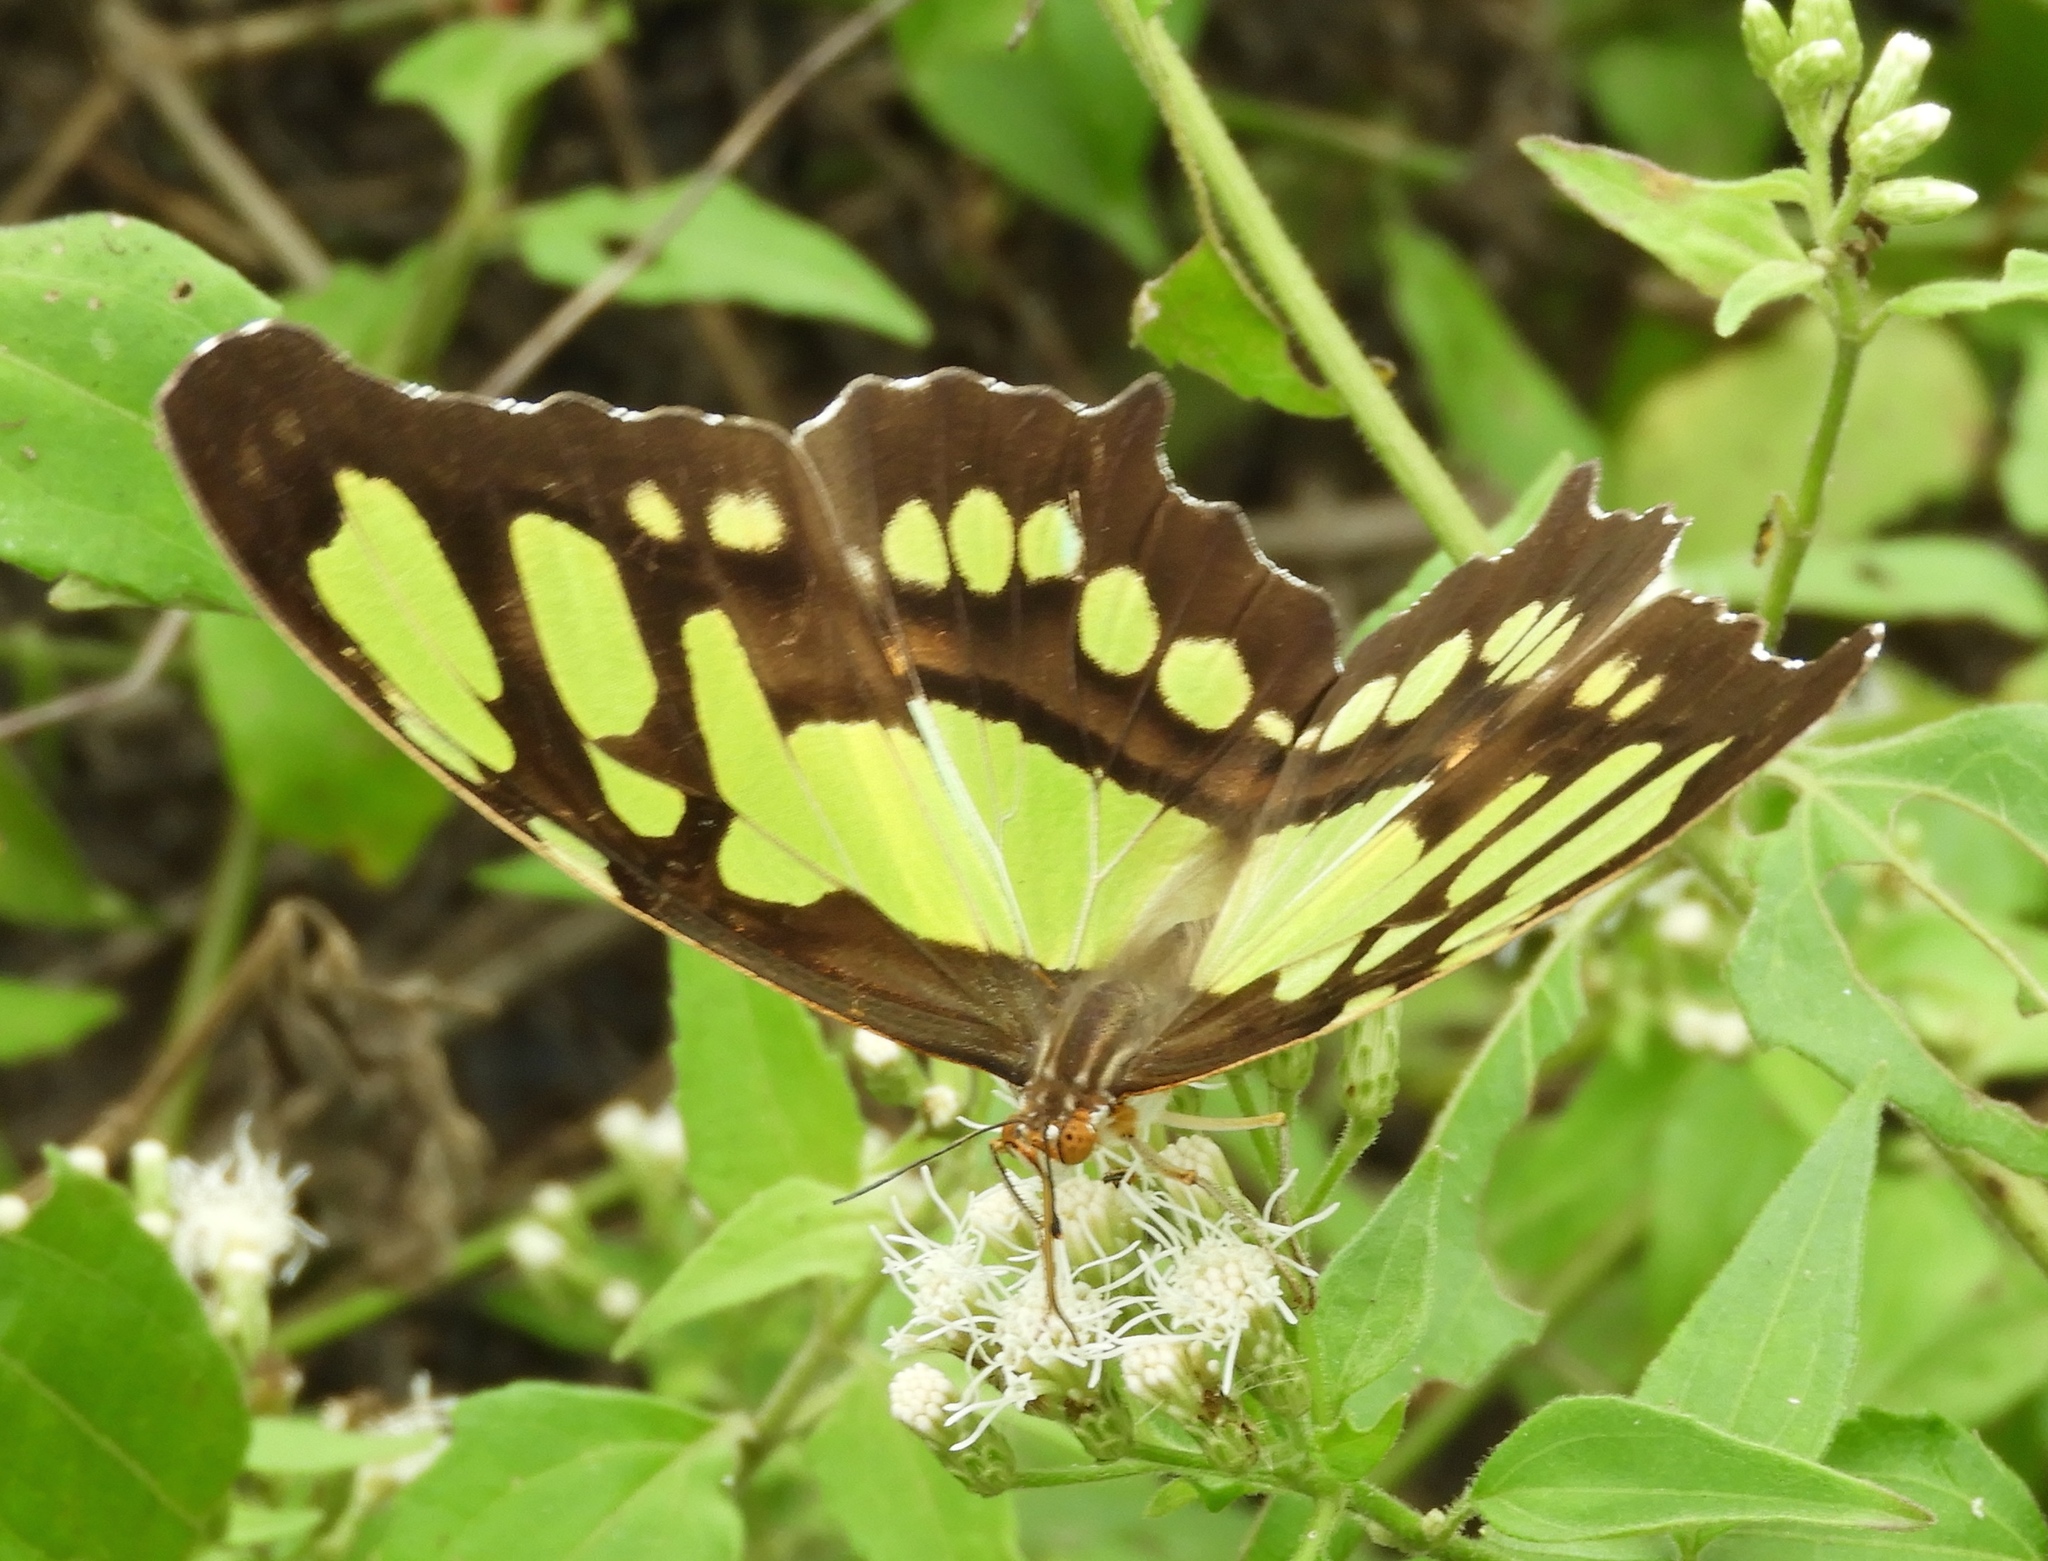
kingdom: Animalia
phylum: Arthropoda
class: Insecta
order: Lepidoptera
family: Nymphalidae
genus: Siproeta
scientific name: Siproeta stelenes
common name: Malachite
